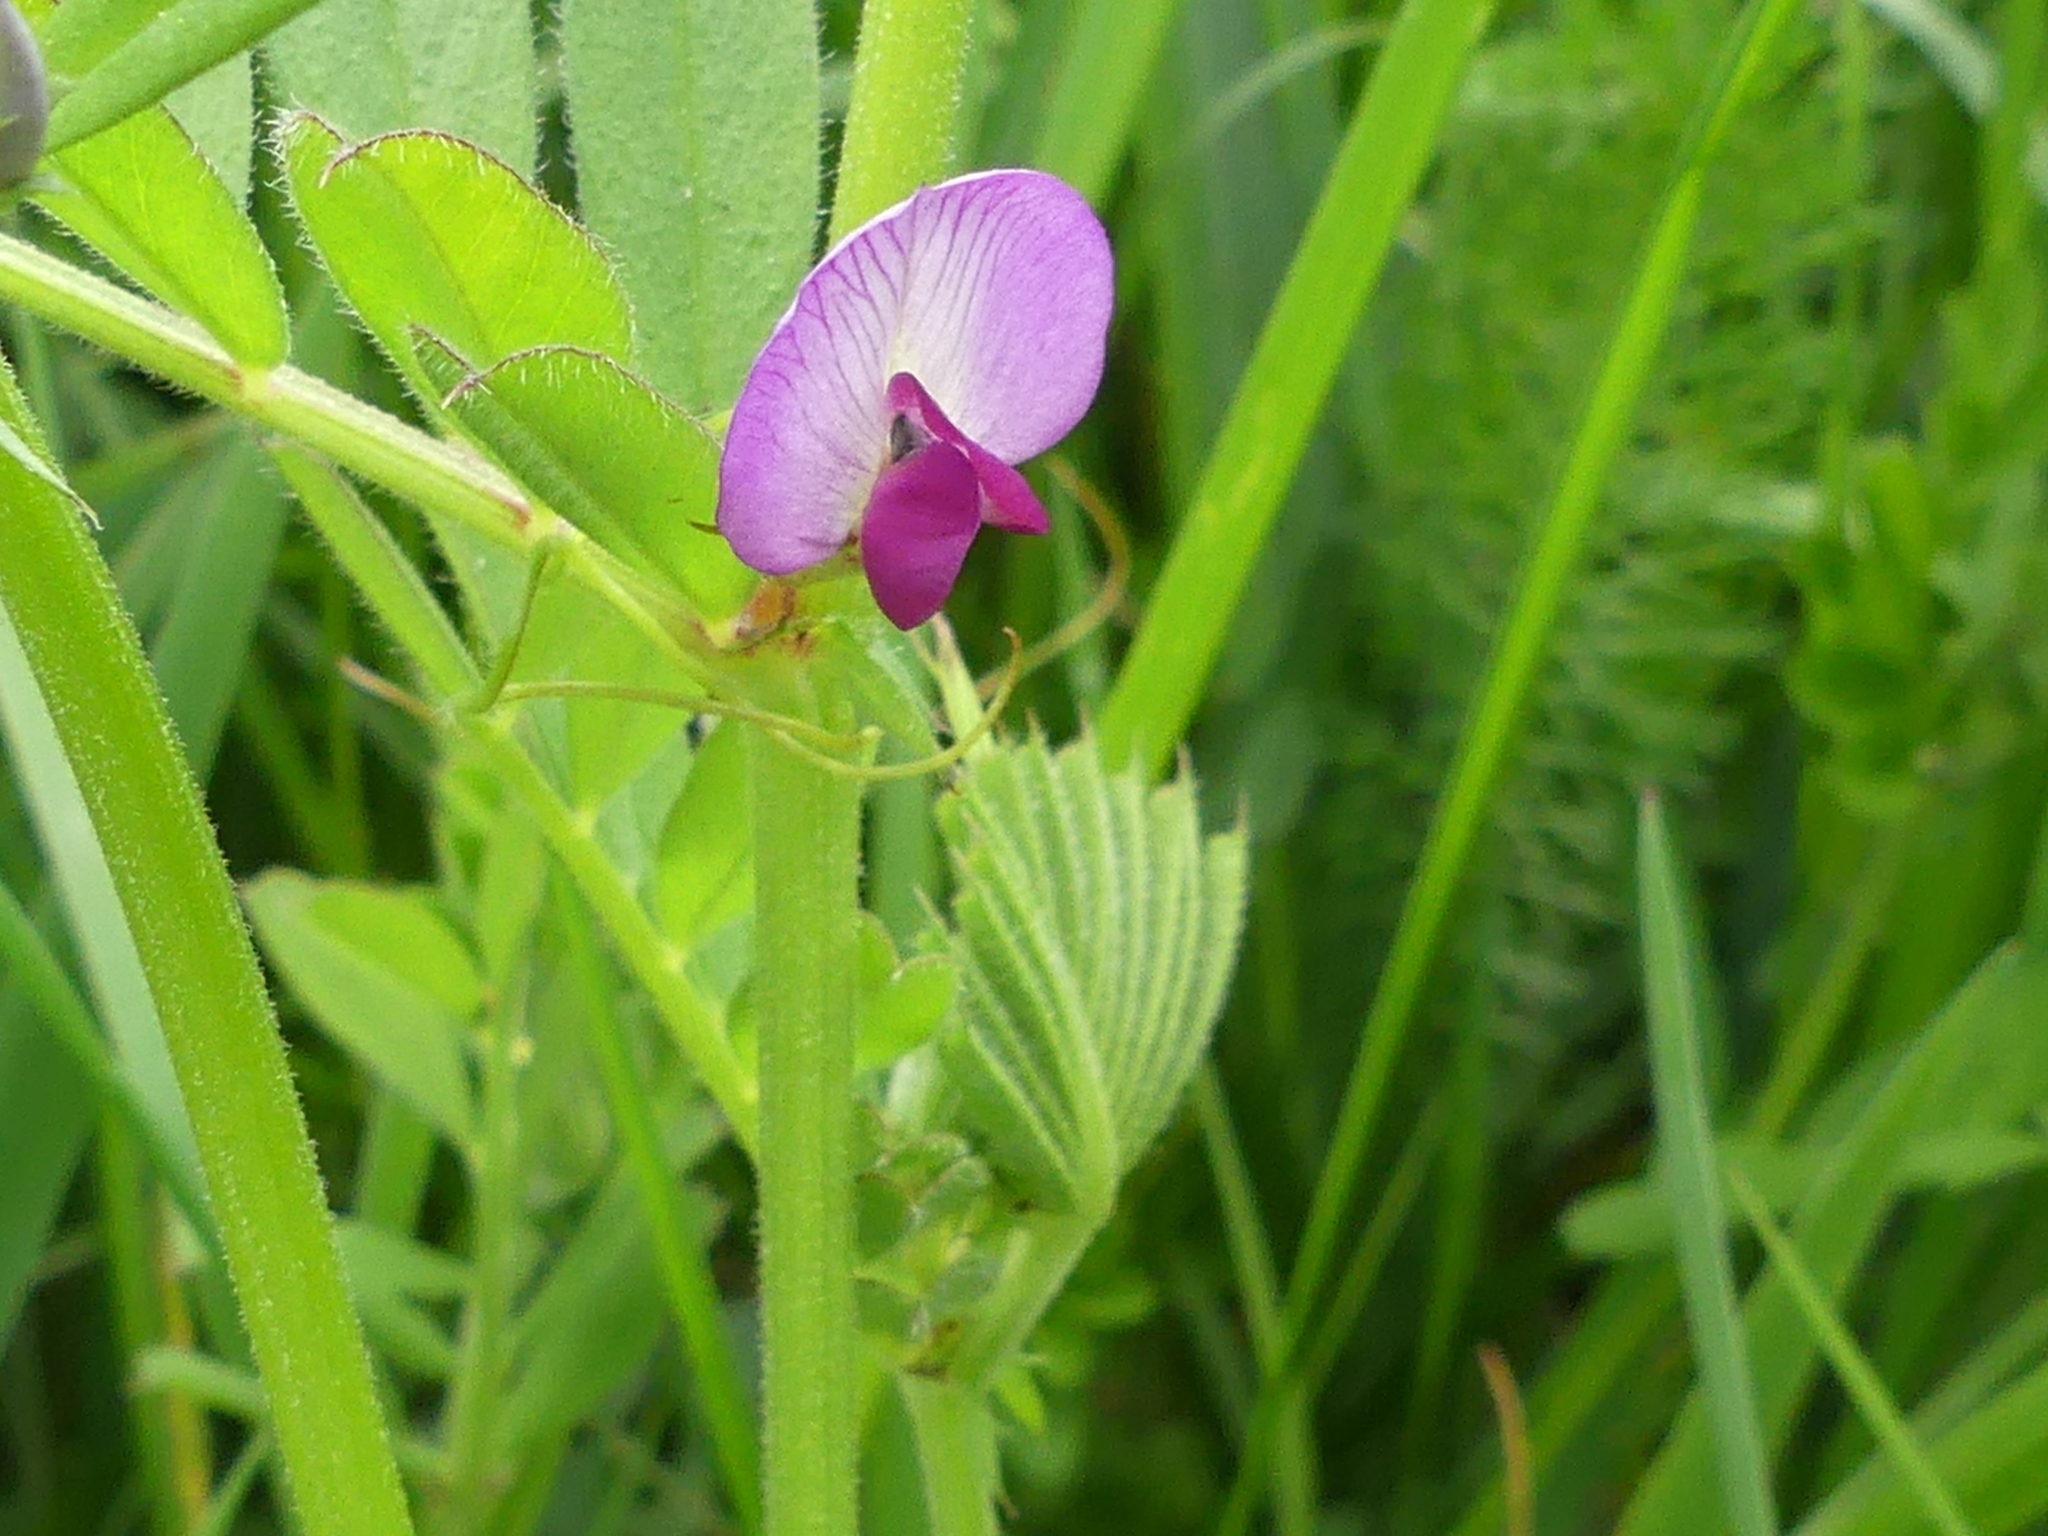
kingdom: Plantae
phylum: Tracheophyta
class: Magnoliopsida
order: Fabales
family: Fabaceae
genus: Vicia
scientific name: Vicia sativa
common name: Garden vetch
